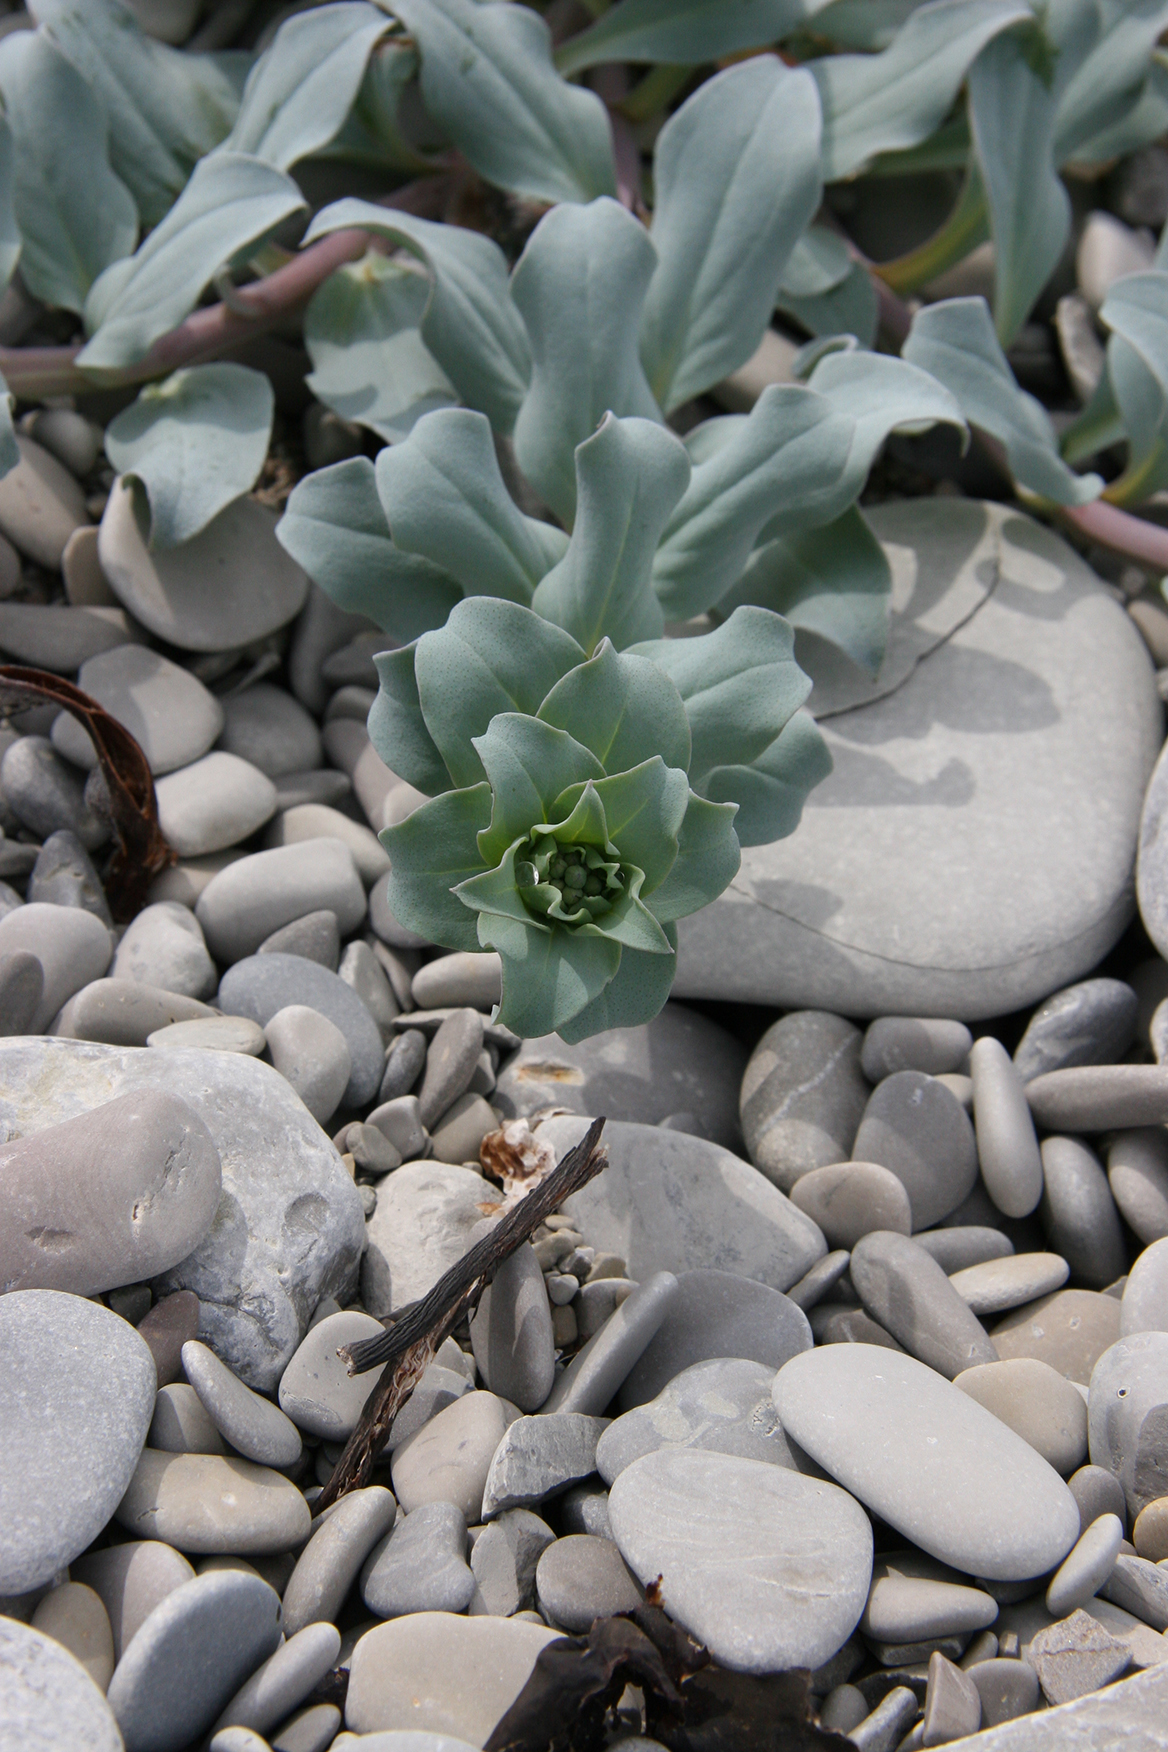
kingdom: Plantae
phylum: Tracheophyta
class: Magnoliopsida
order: Boraginales
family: Boraginaceae
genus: Mertensia
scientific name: Mertensia maritima
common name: Oysterplant
